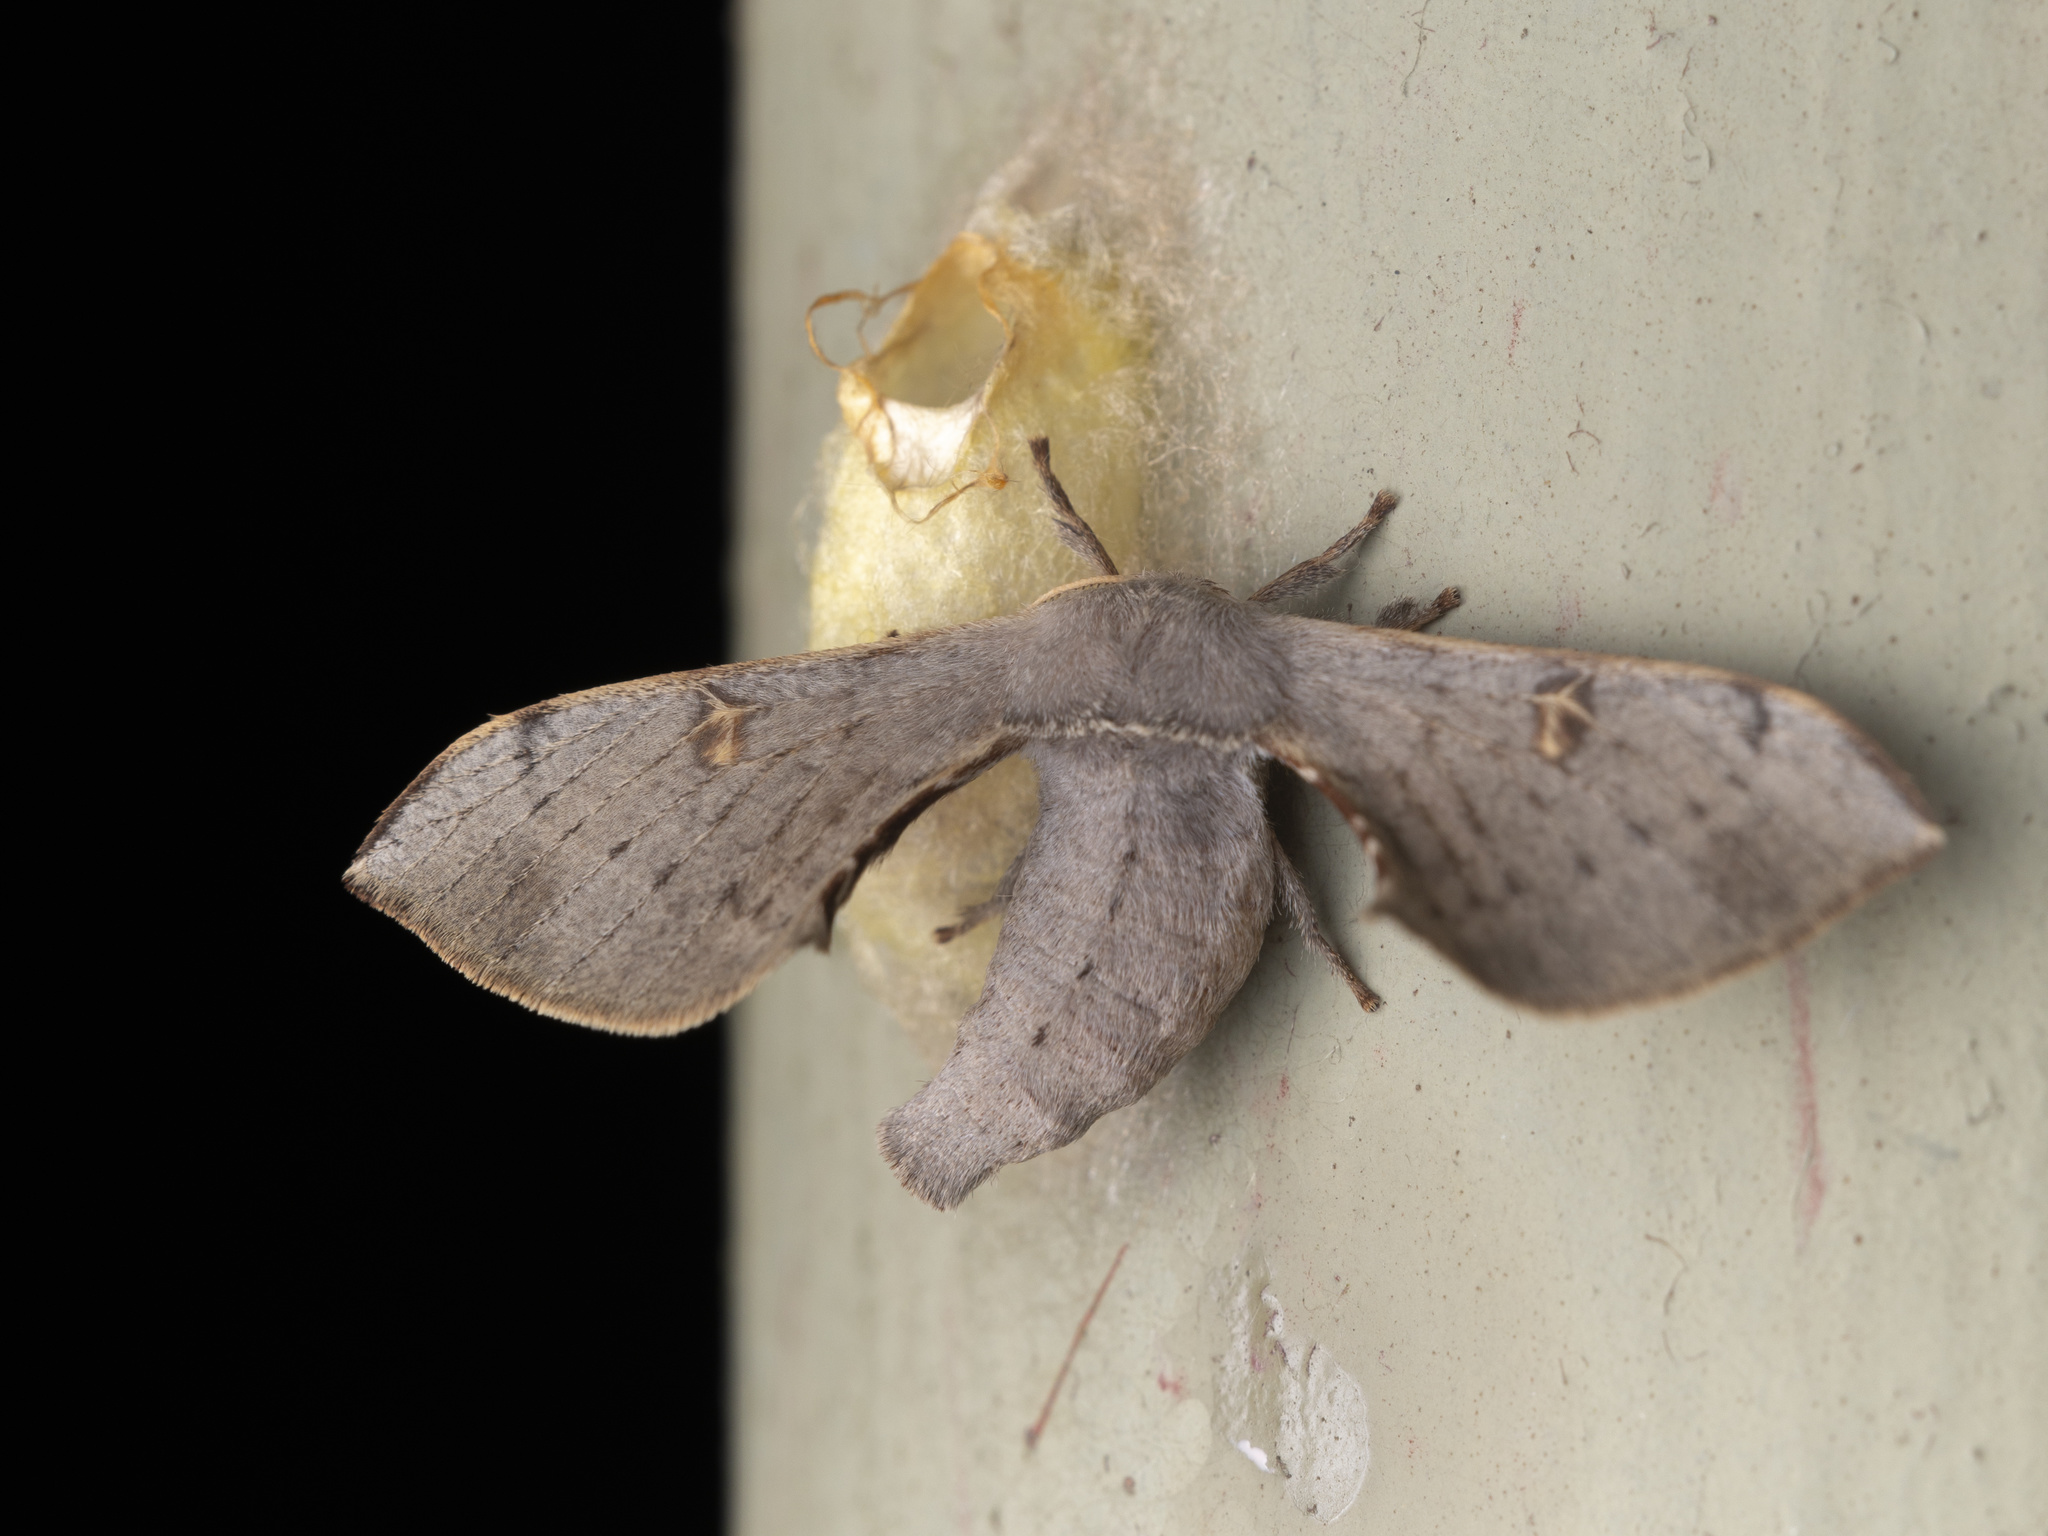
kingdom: Animalia
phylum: Arthropoda
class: Insecta
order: Lepidoptera
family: Bombycidae
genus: Ocinara
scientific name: Ocinara albicollis
